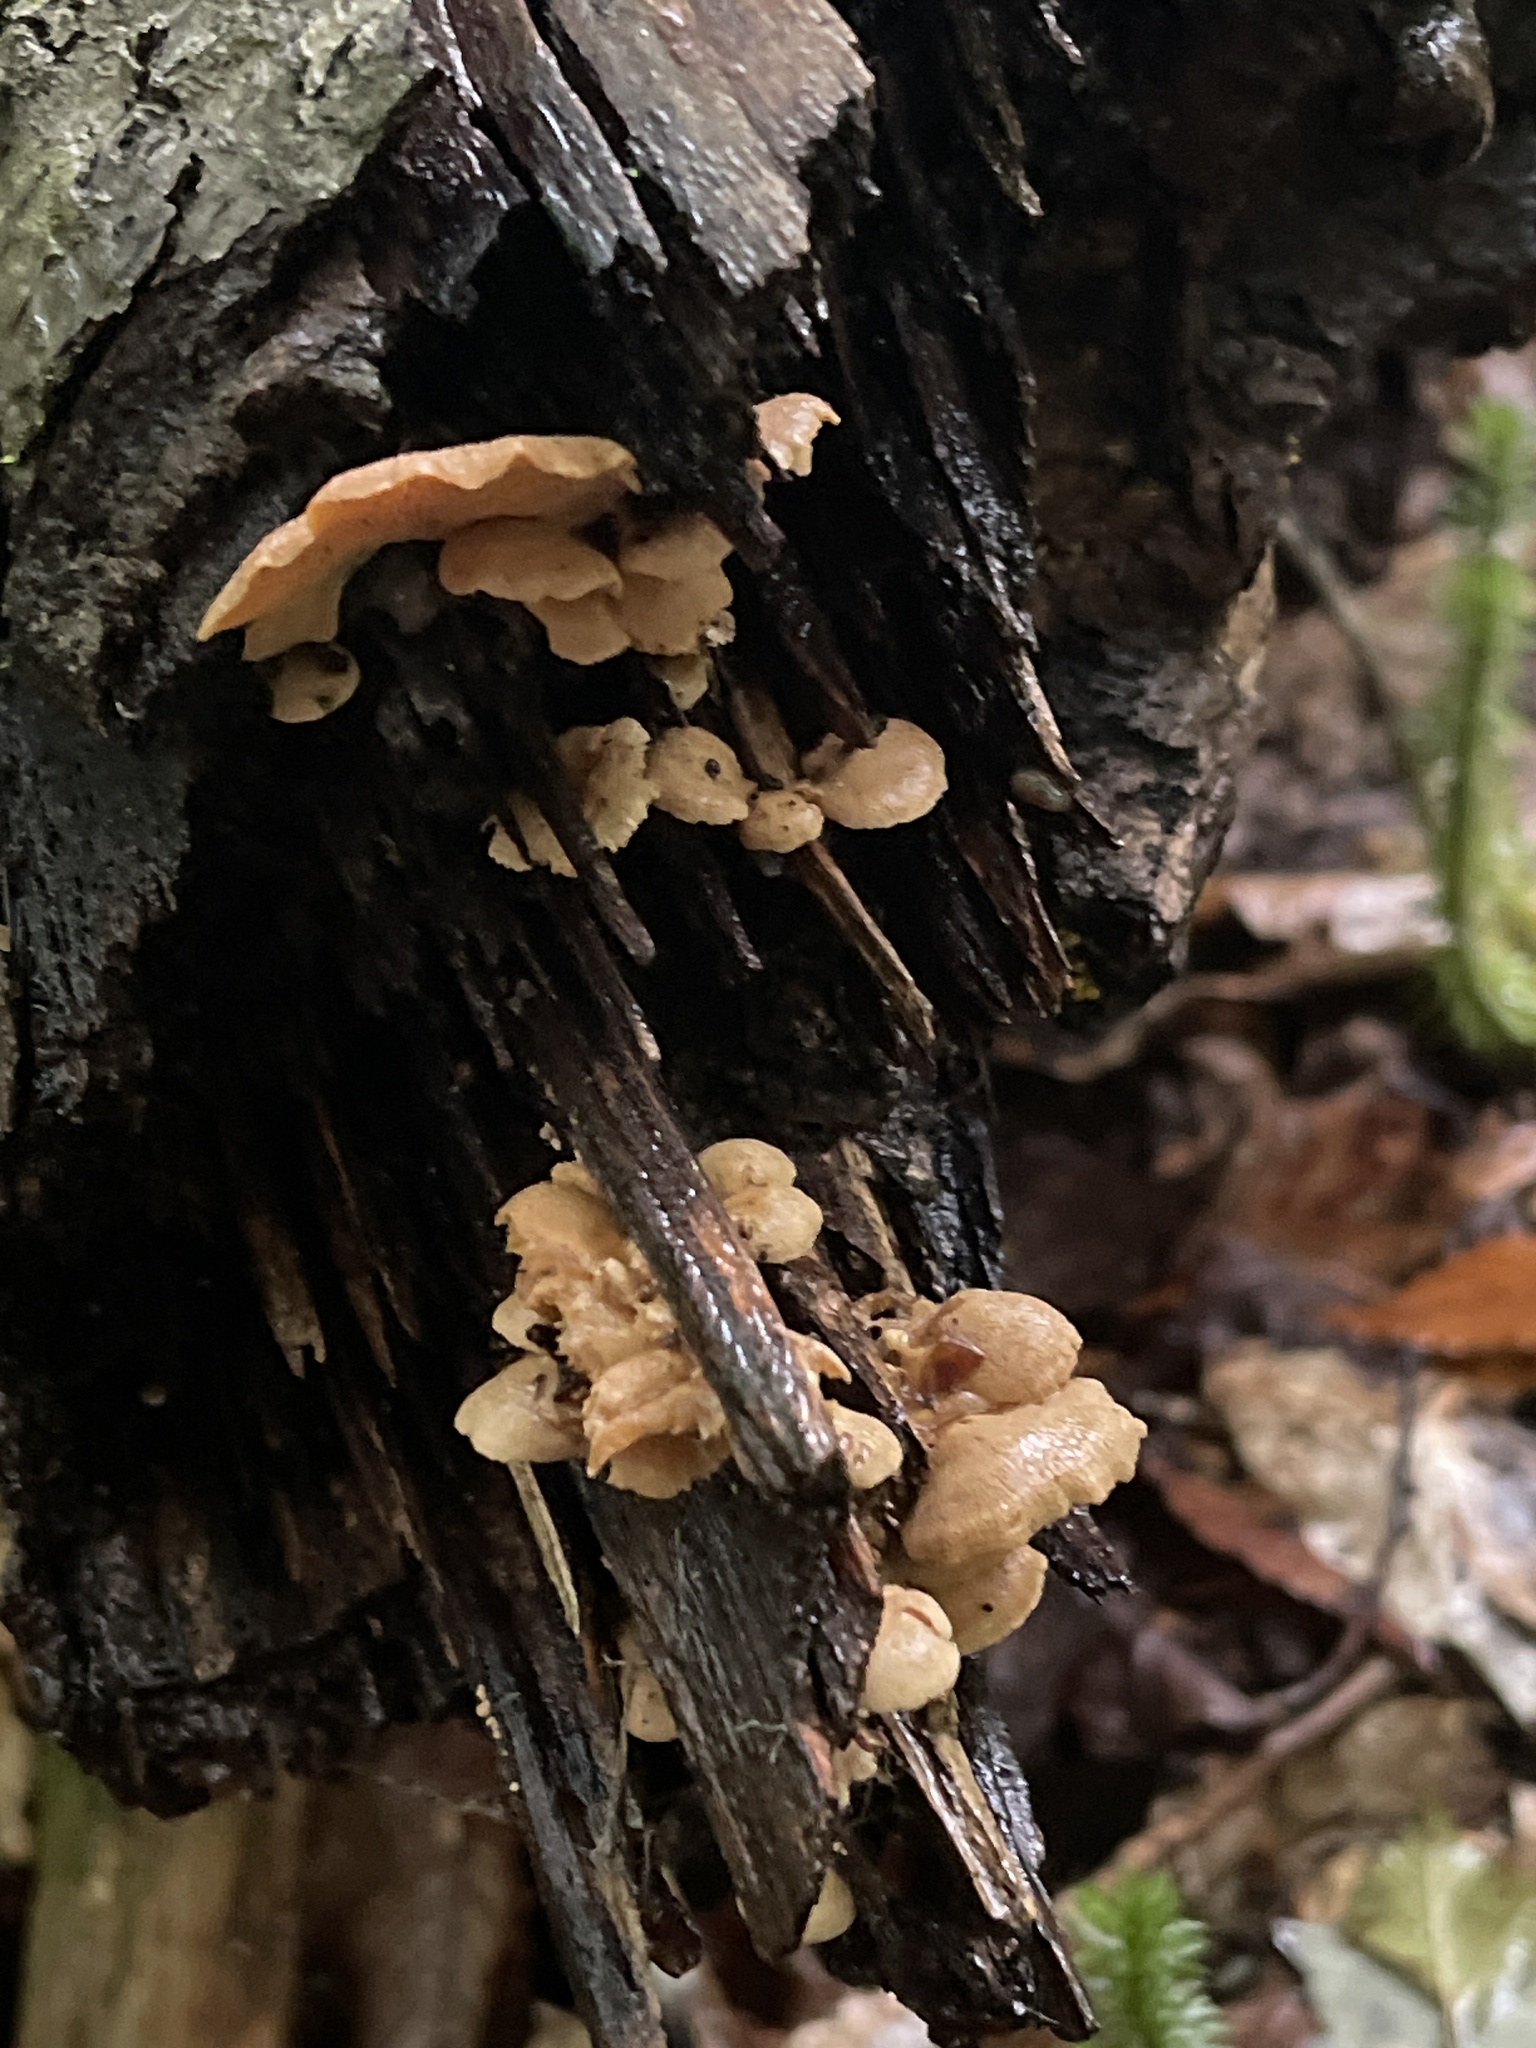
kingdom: Fungi
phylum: Basidiomycota
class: Agaricomycetes
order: Agaricales
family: Mycenaceae
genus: Panellus
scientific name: Panellus stipticus
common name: Bitter oysterling
